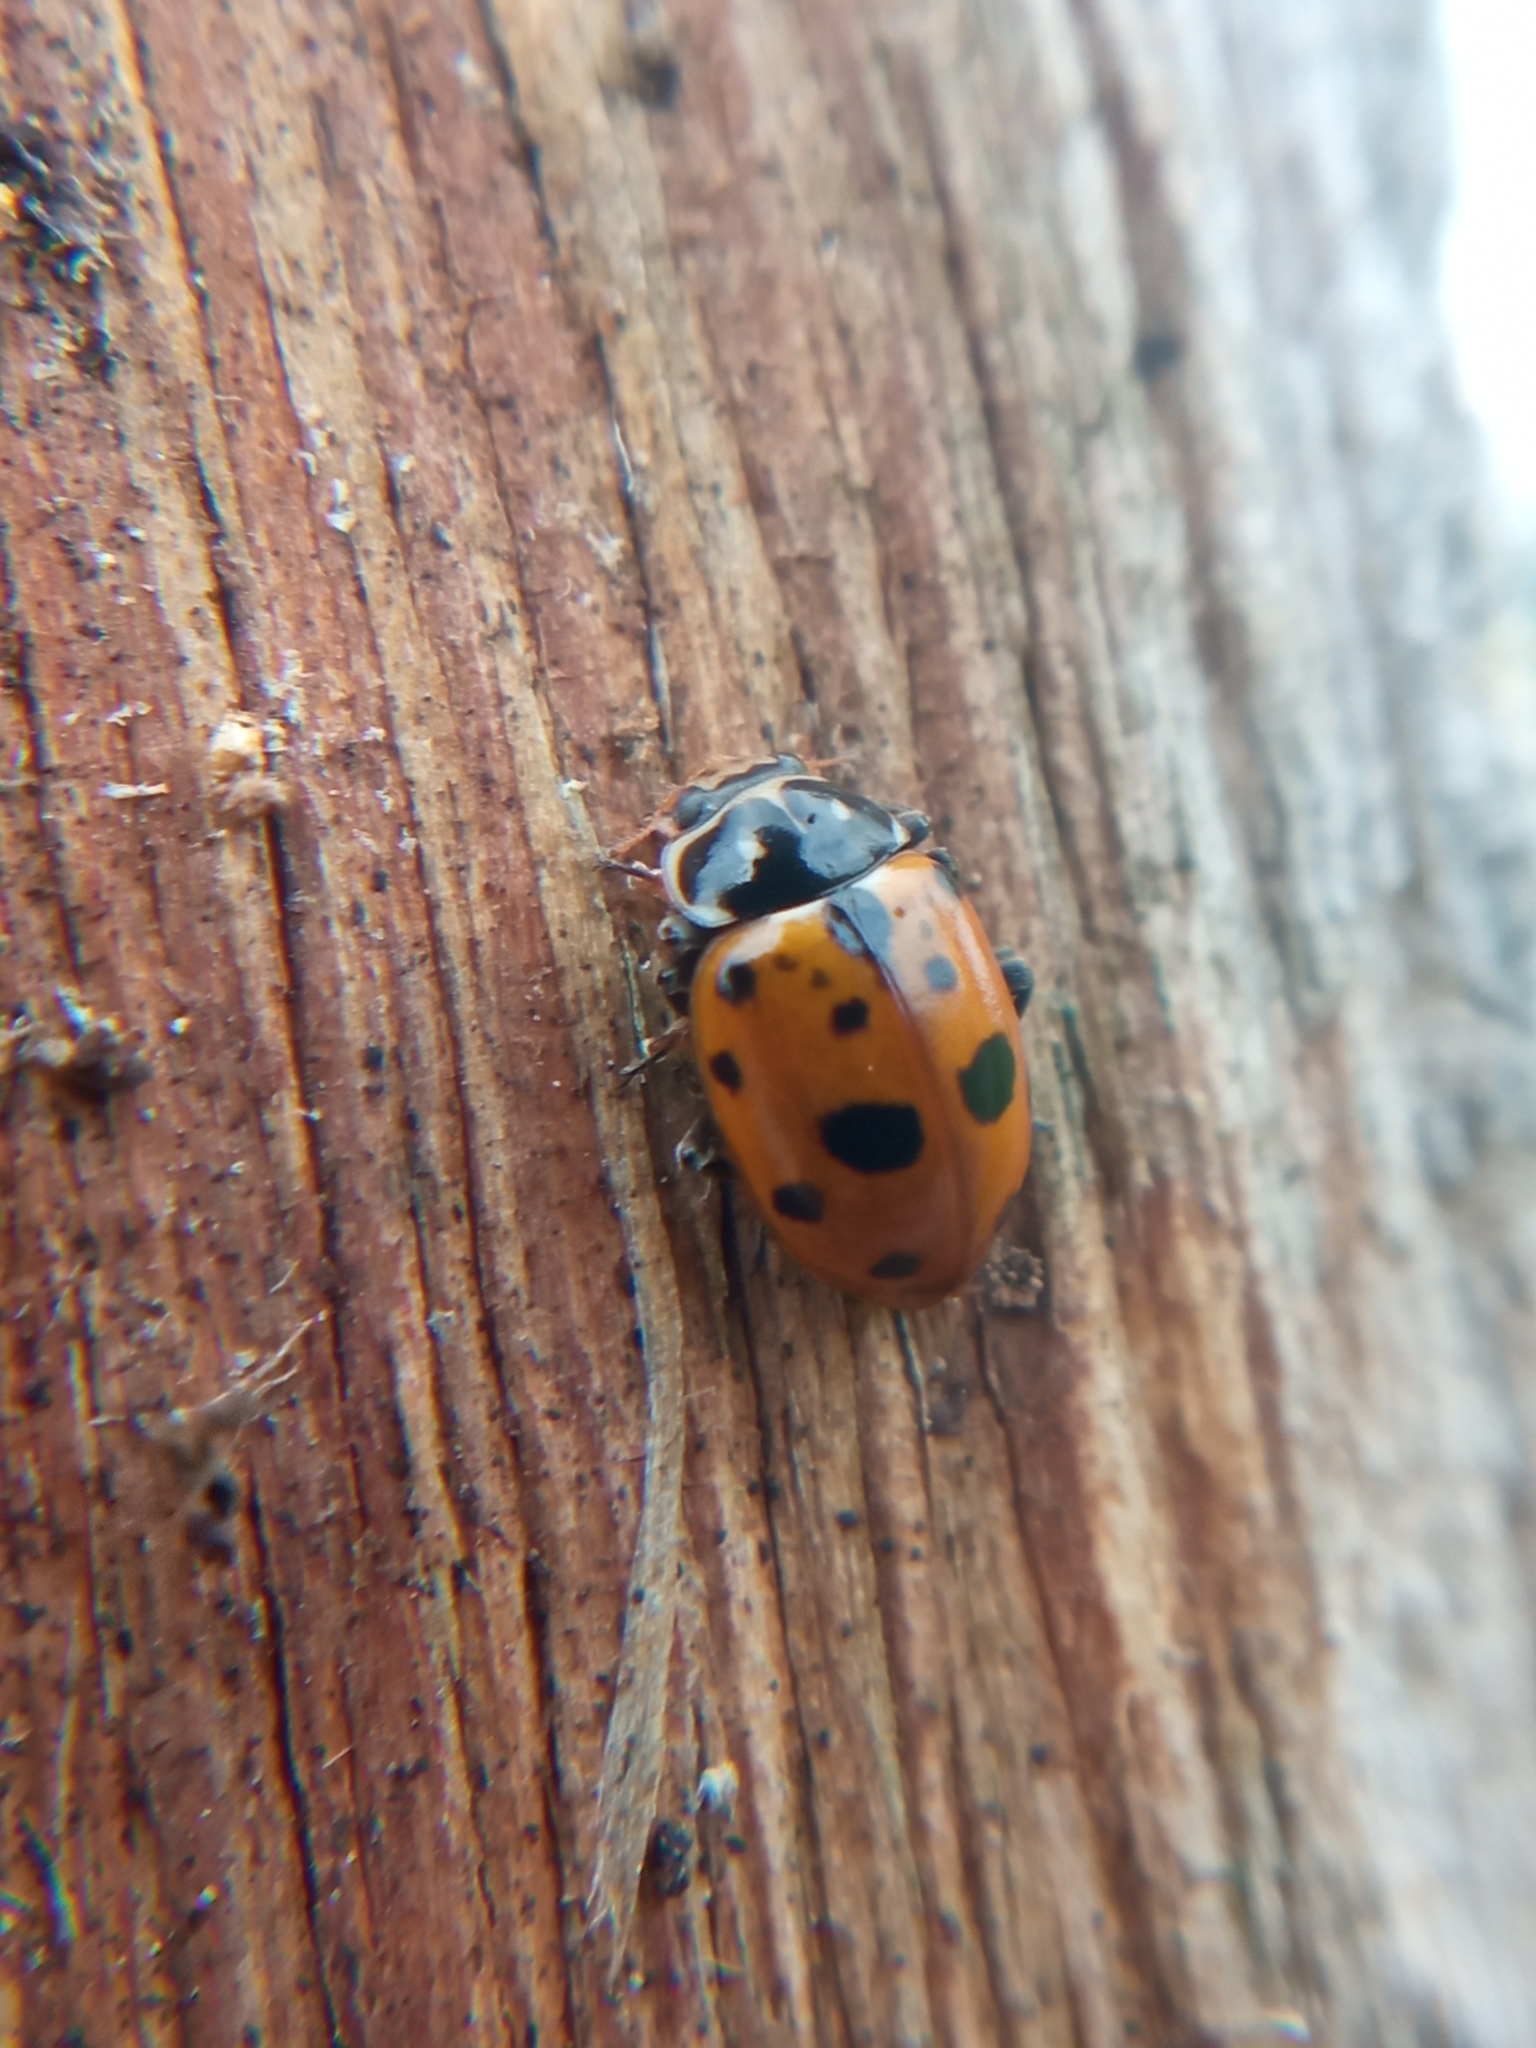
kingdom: Animalia
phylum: Arthropoda
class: Insecta
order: Coleoptera
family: Coccinellidae
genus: Hippodamia
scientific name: Hippodamia variegata
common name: Ladybird beetle
